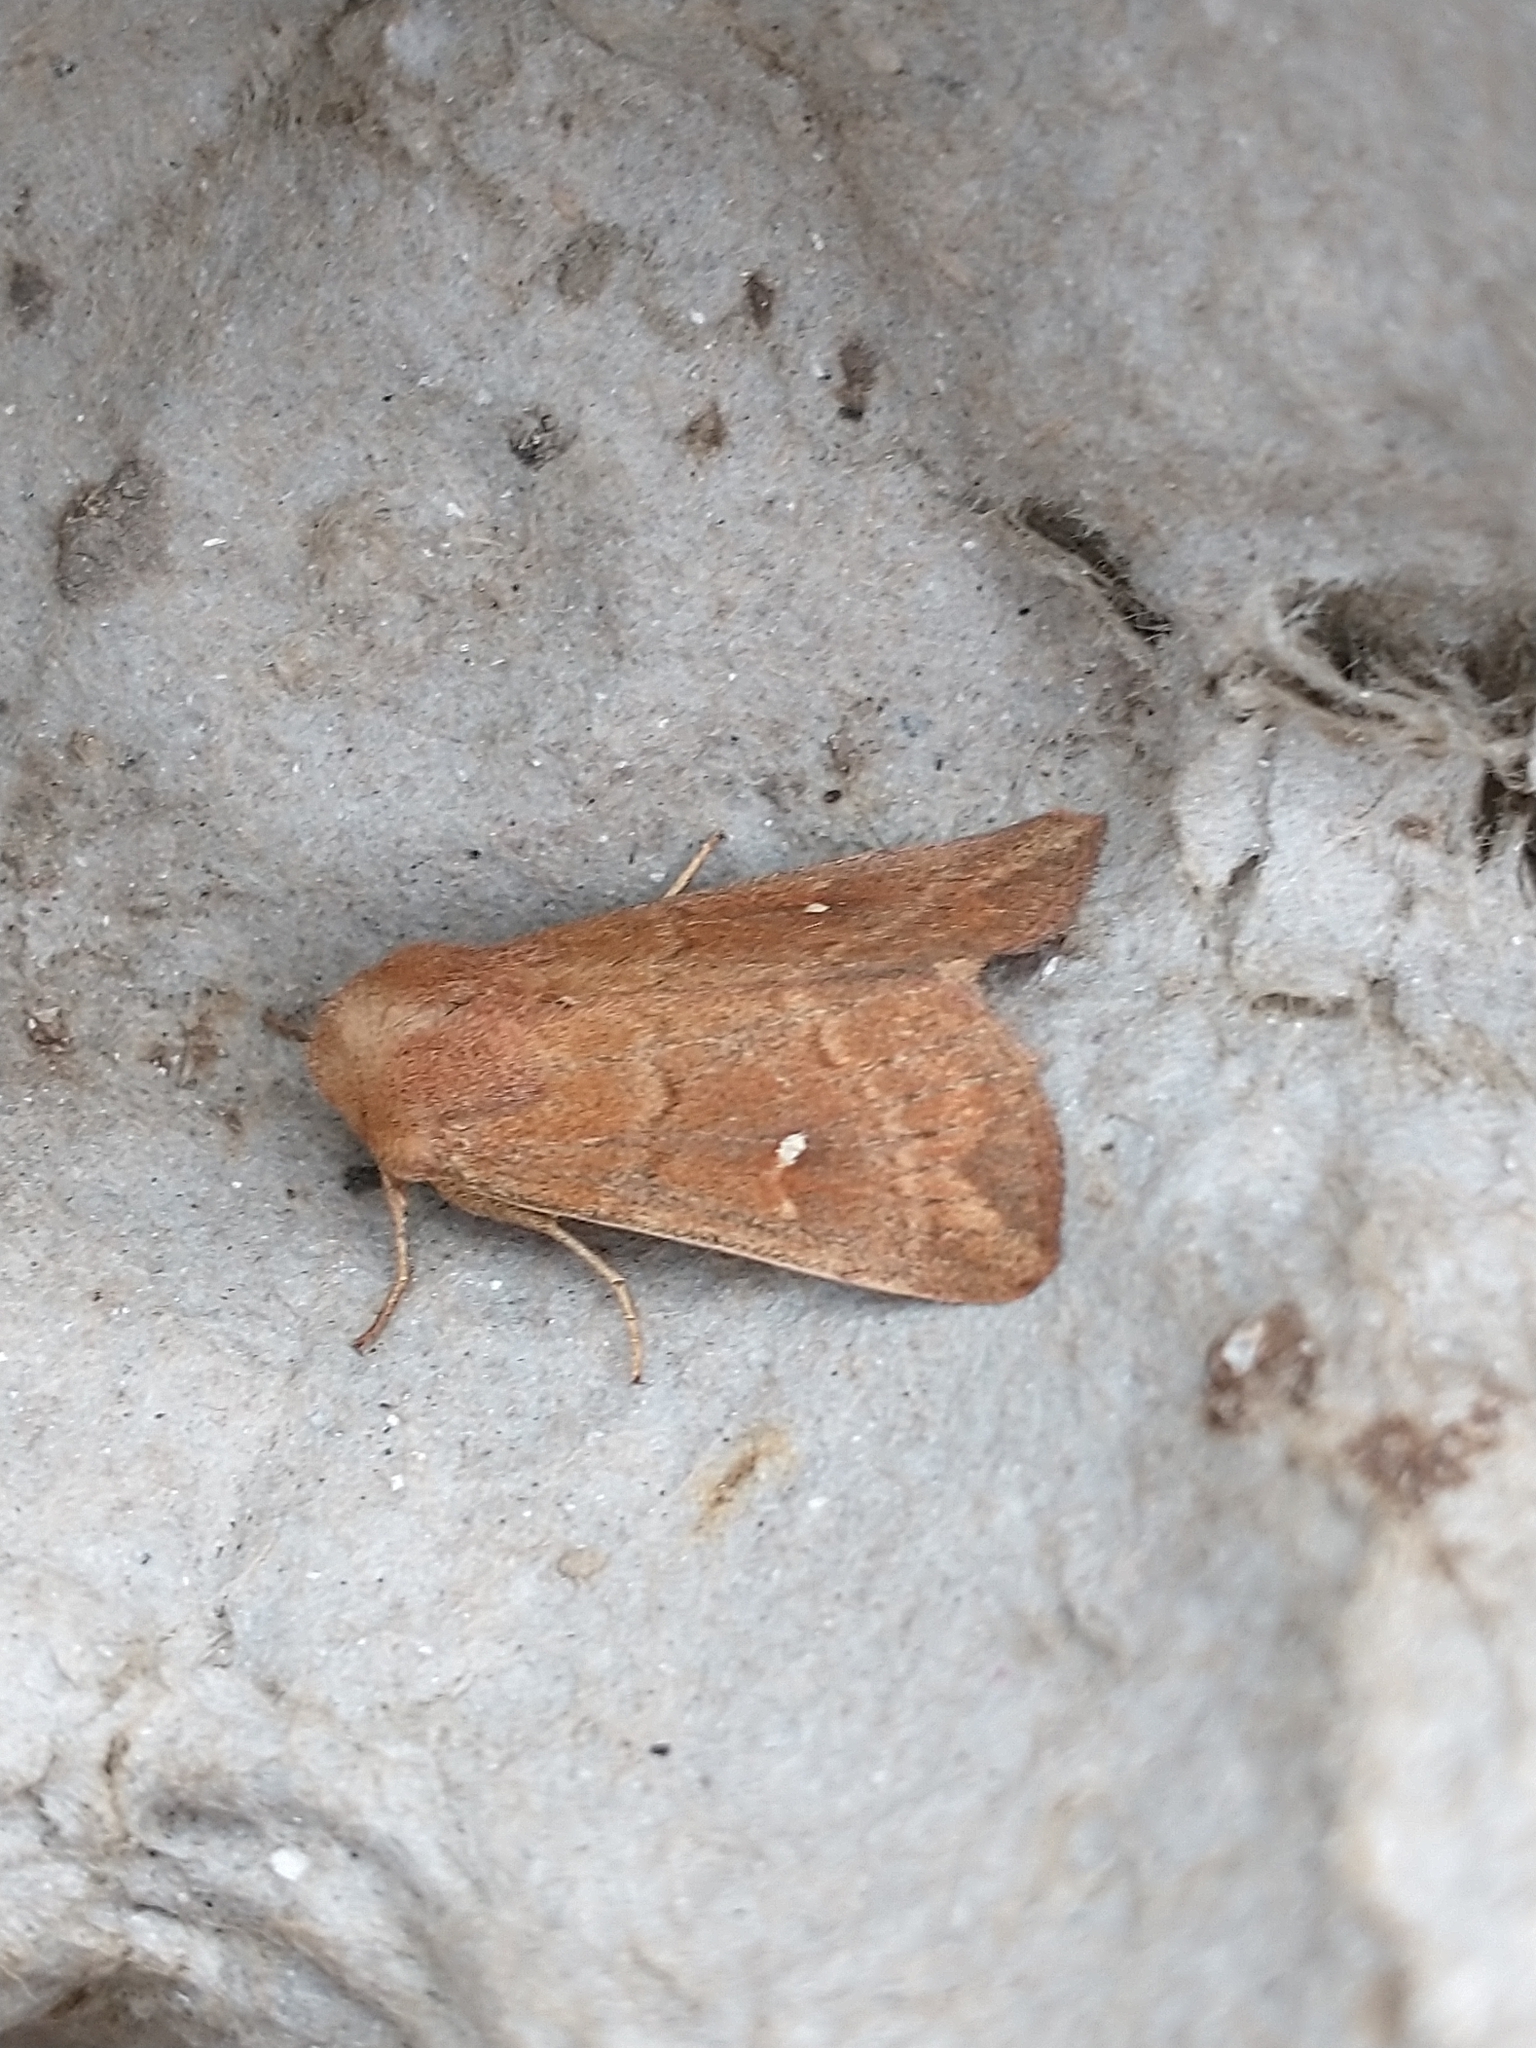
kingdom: Animalia
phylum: Arthropoda
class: Insecta
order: Lepidoptera
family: Noctuidae
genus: Mythimna
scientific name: Mythimna albipuncta
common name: White-point
